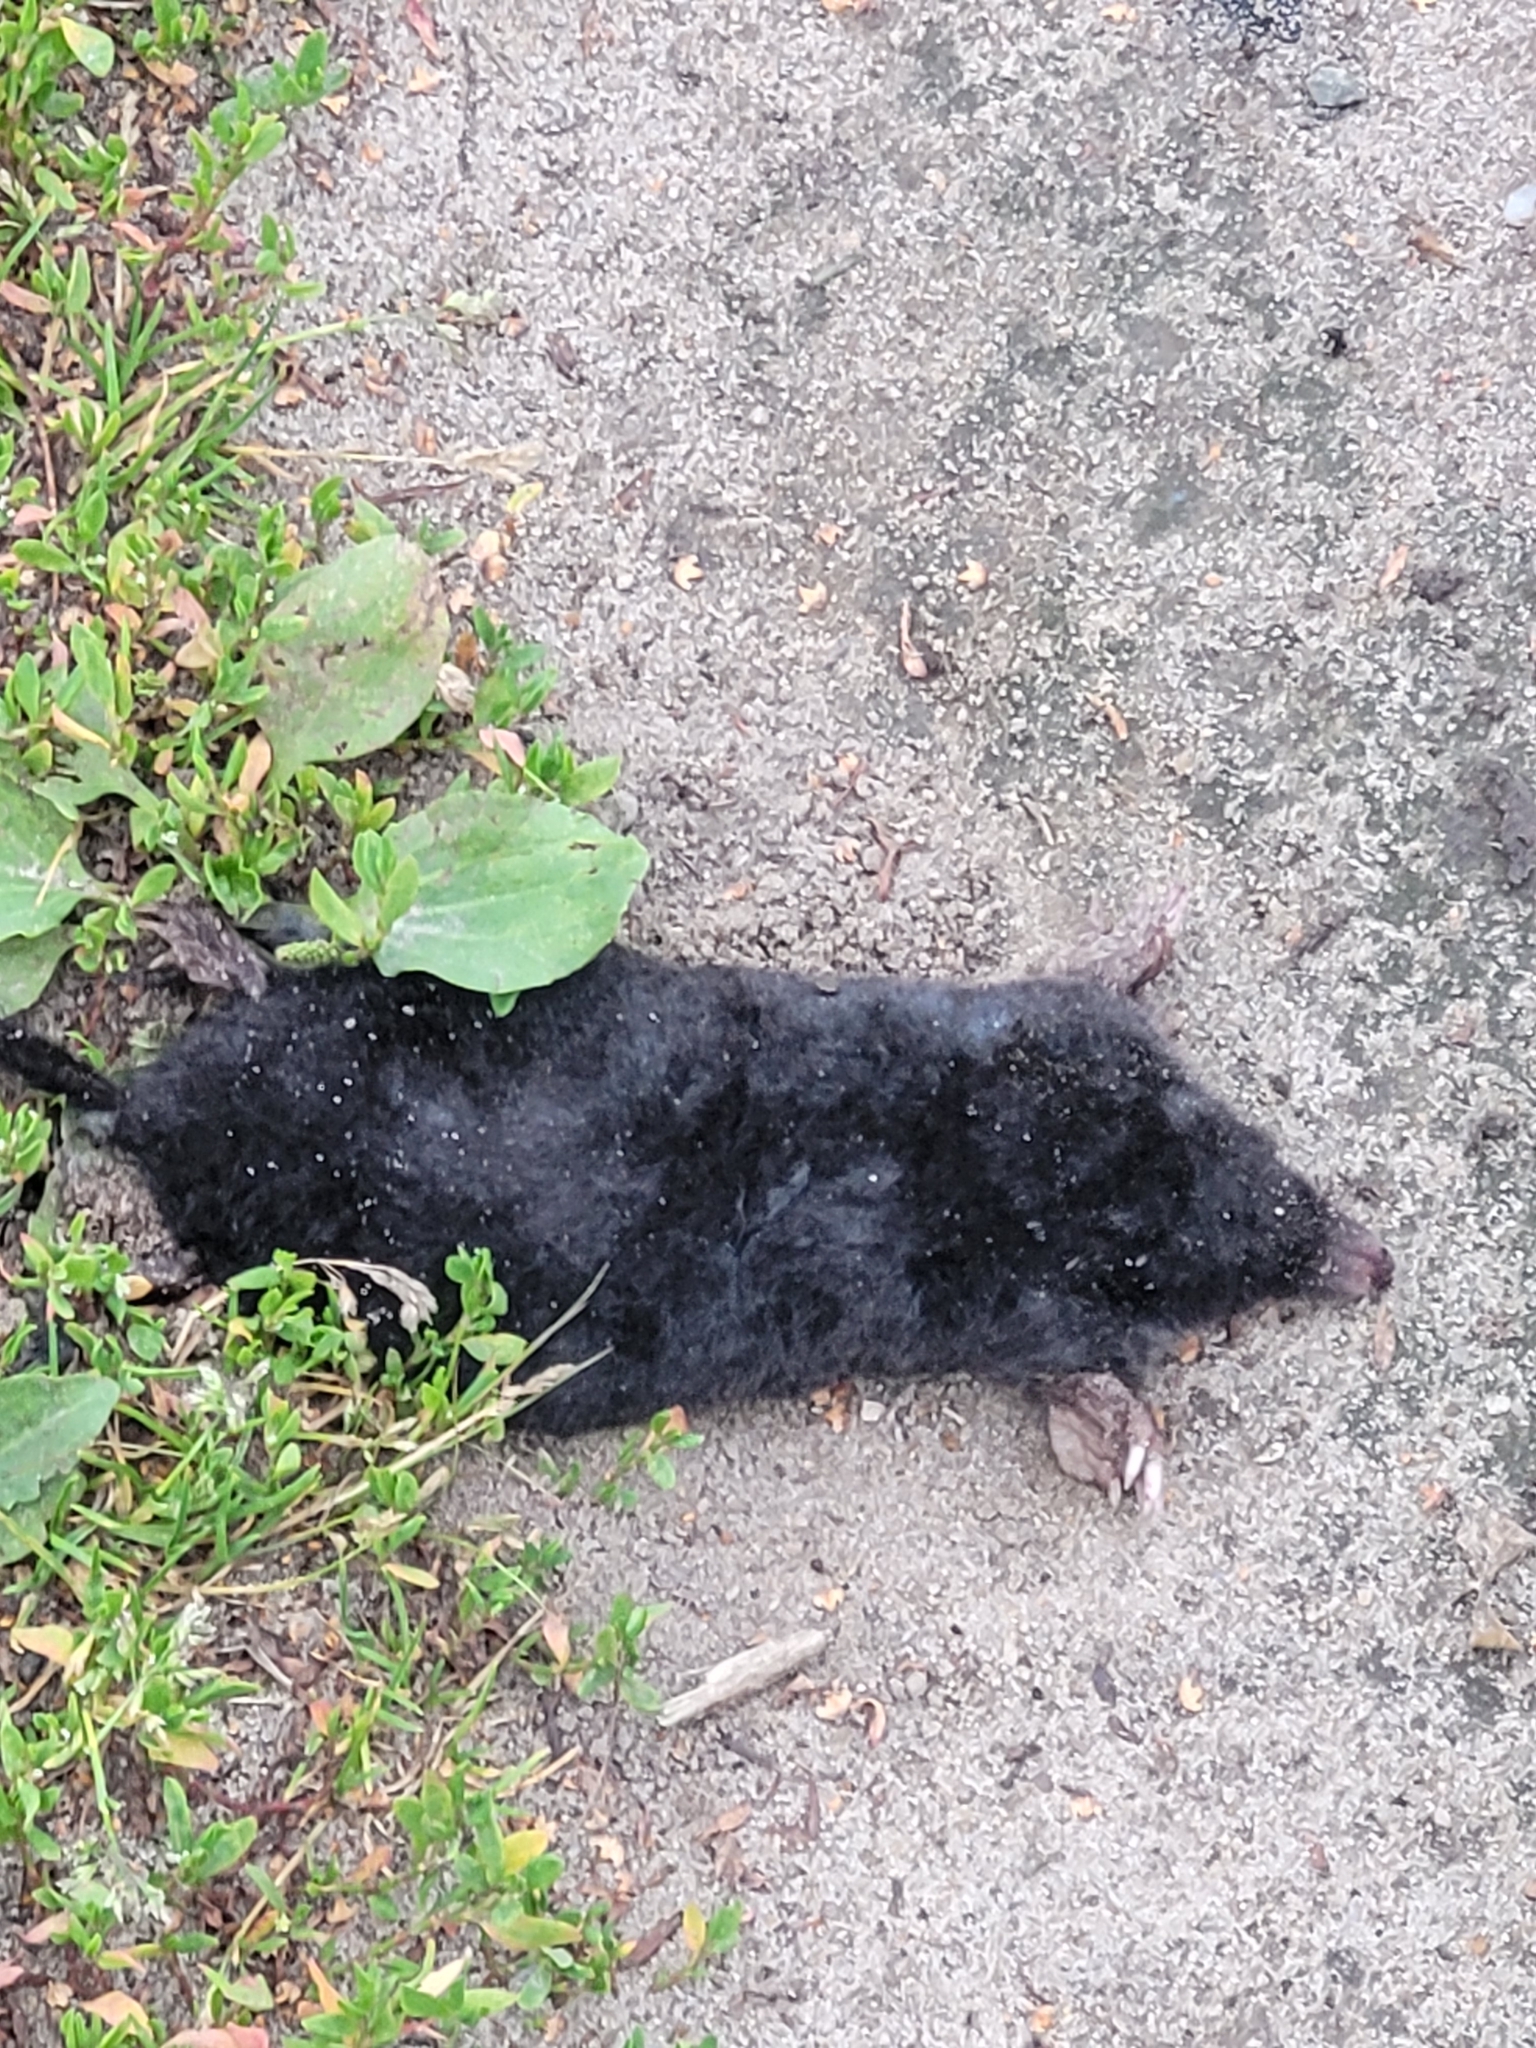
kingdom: Animalia
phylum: Chordata
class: Mammalia
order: Soricomorpha
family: Talpidae
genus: Talpa
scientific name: Talpa europaea
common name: European mole
